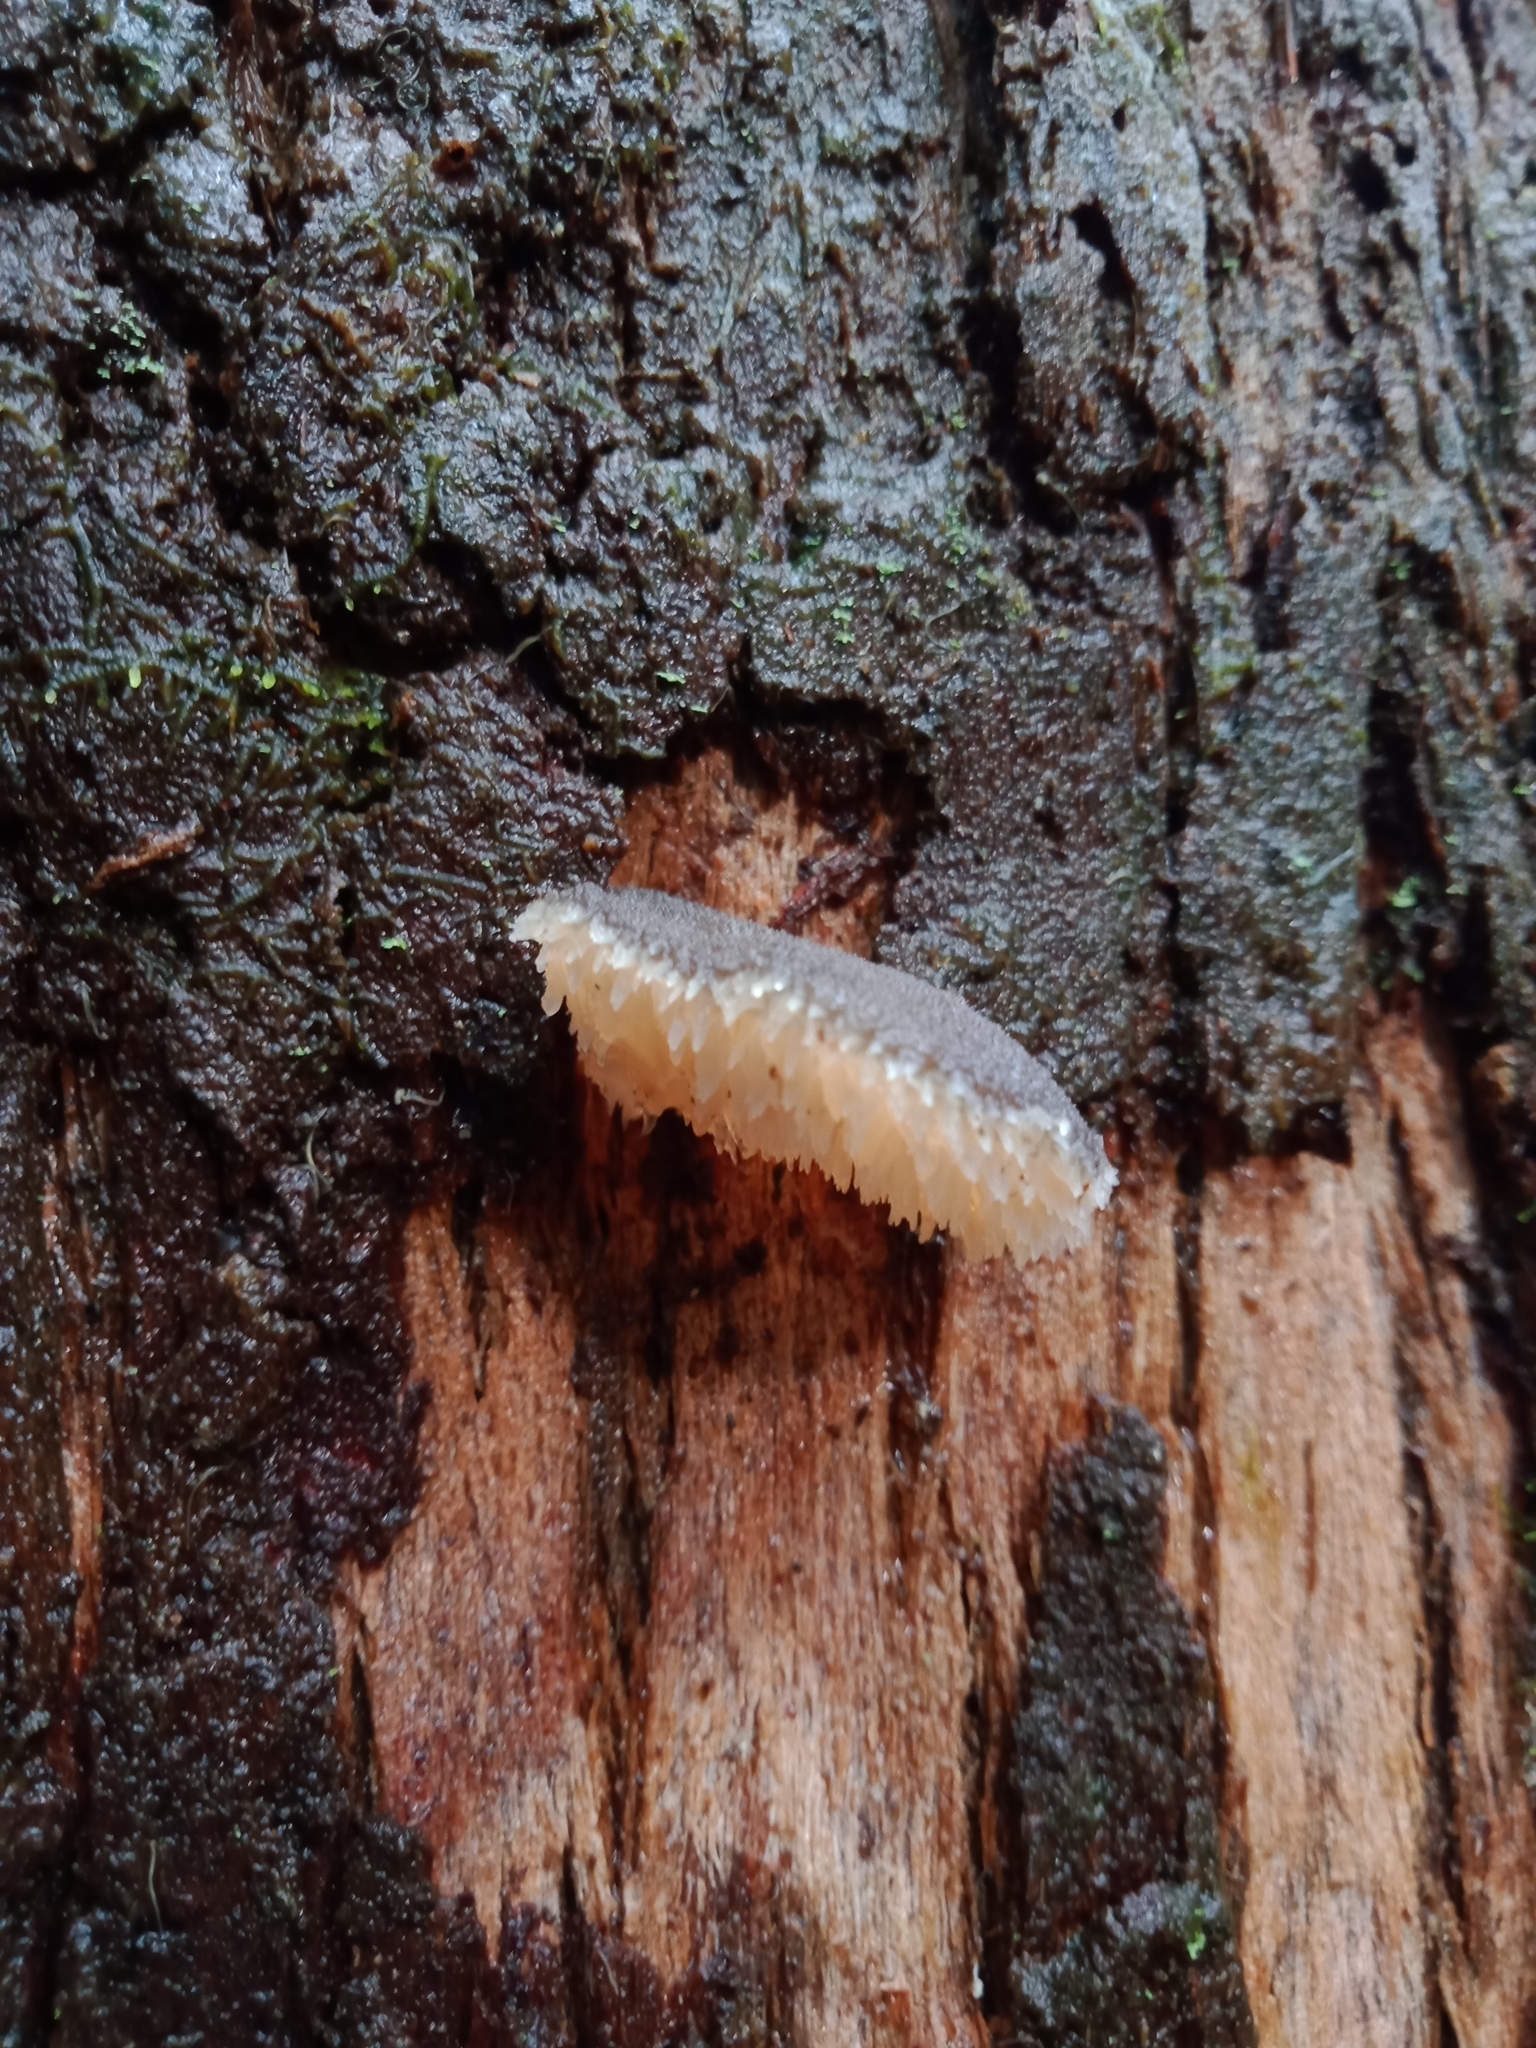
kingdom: Fungi
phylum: Basidiomycota
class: Agaricomycetes
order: Auriculariales
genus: Pseudohydnum
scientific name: Pseudohydnum gelatinosum
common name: Jelly tongue
